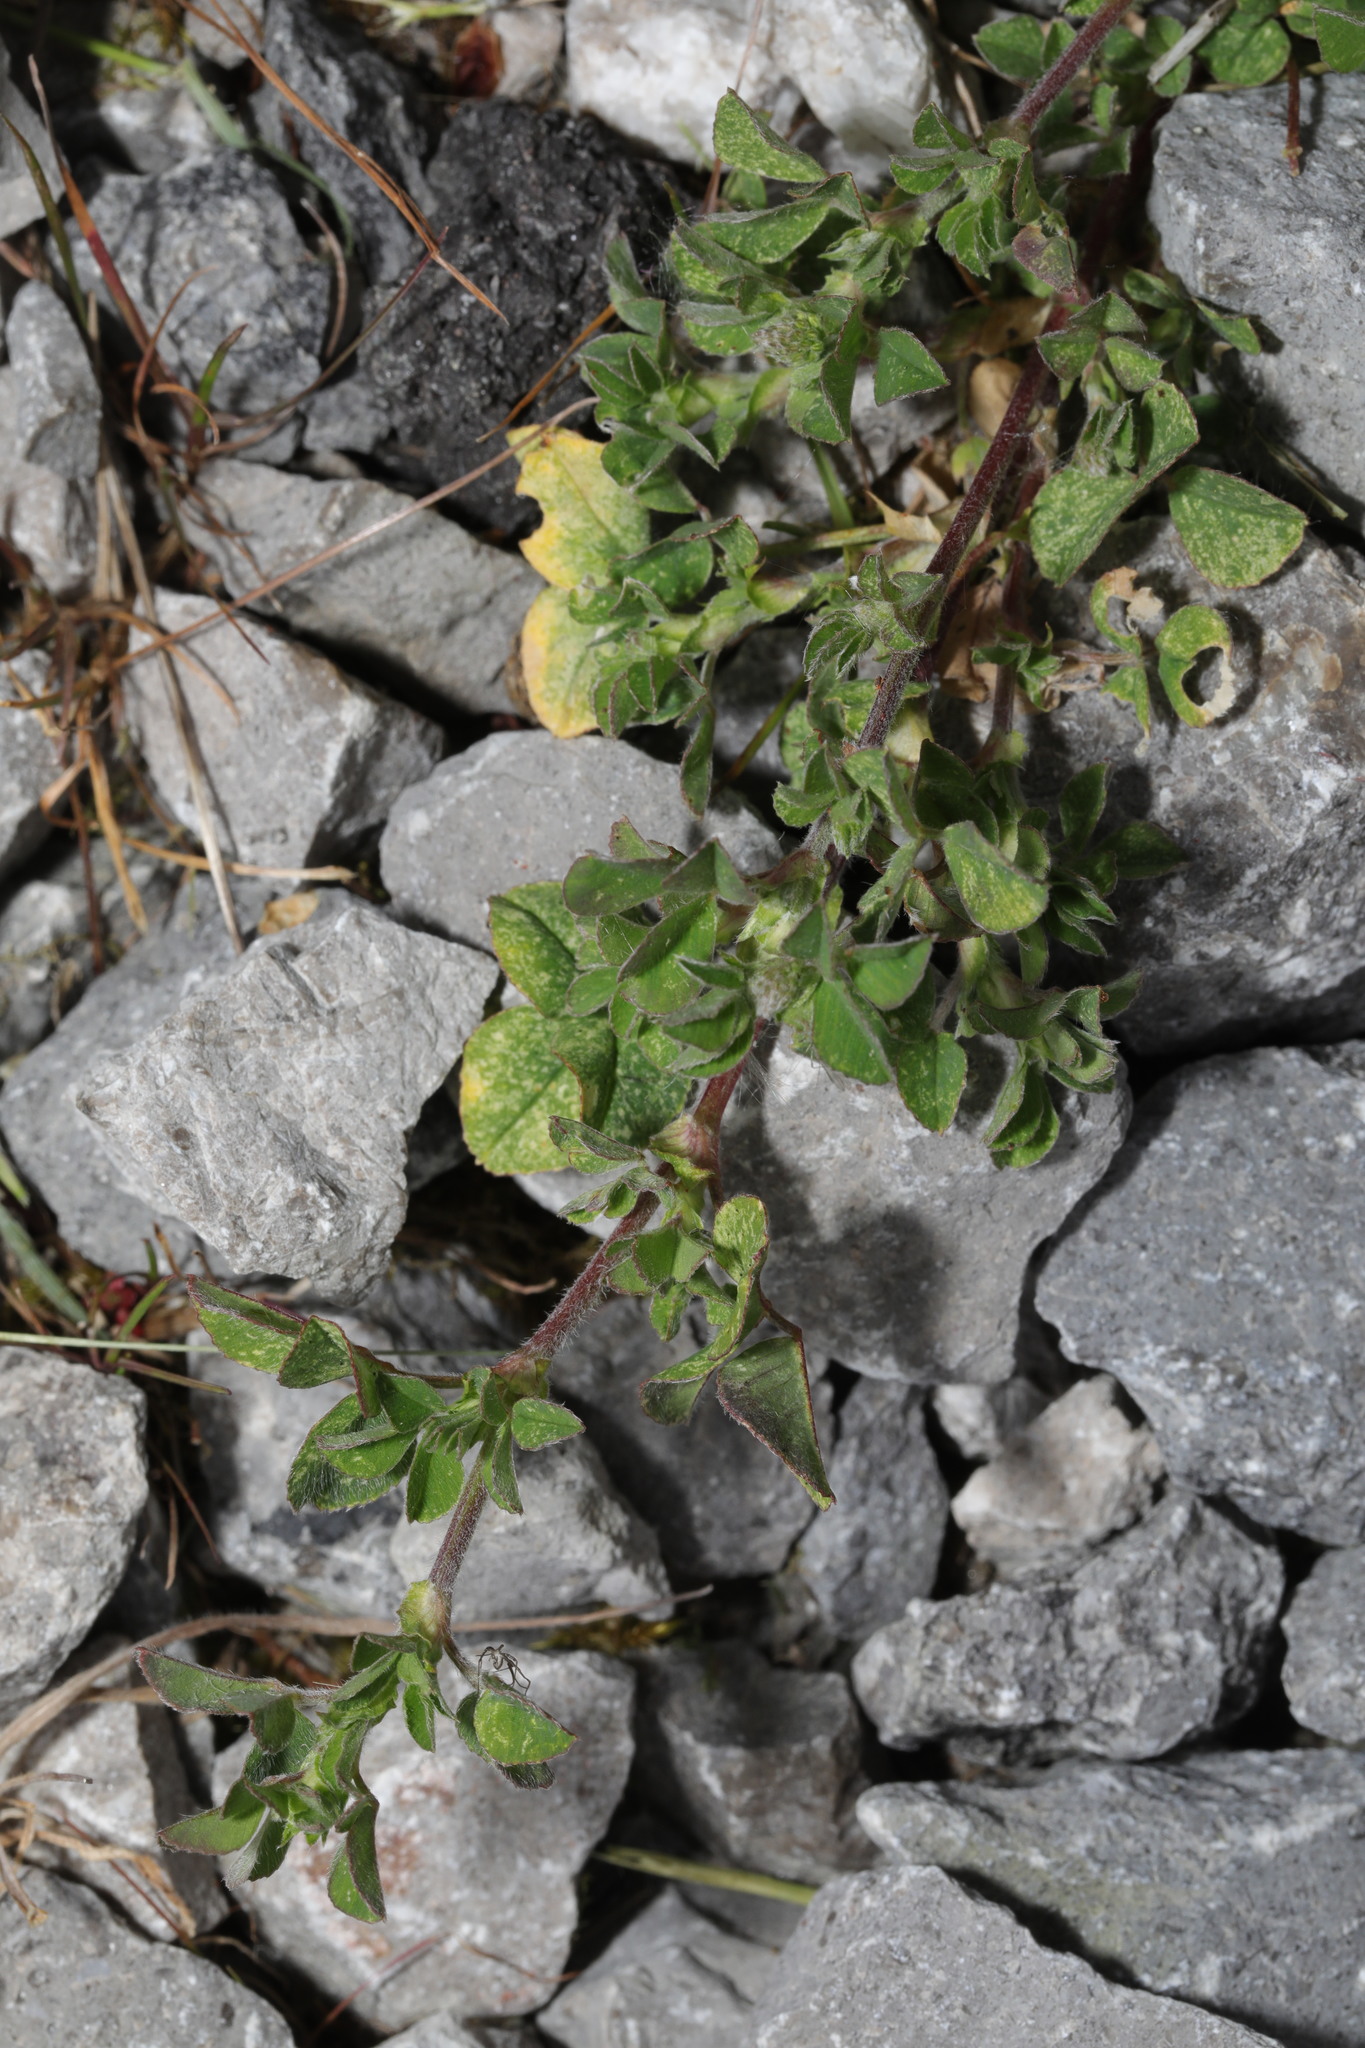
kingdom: Plantae
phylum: Tracheophyta
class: Magnoliopsida
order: Fabales
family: Fabaceae
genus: Medicago
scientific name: Medicago lupulina
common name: Black medick
